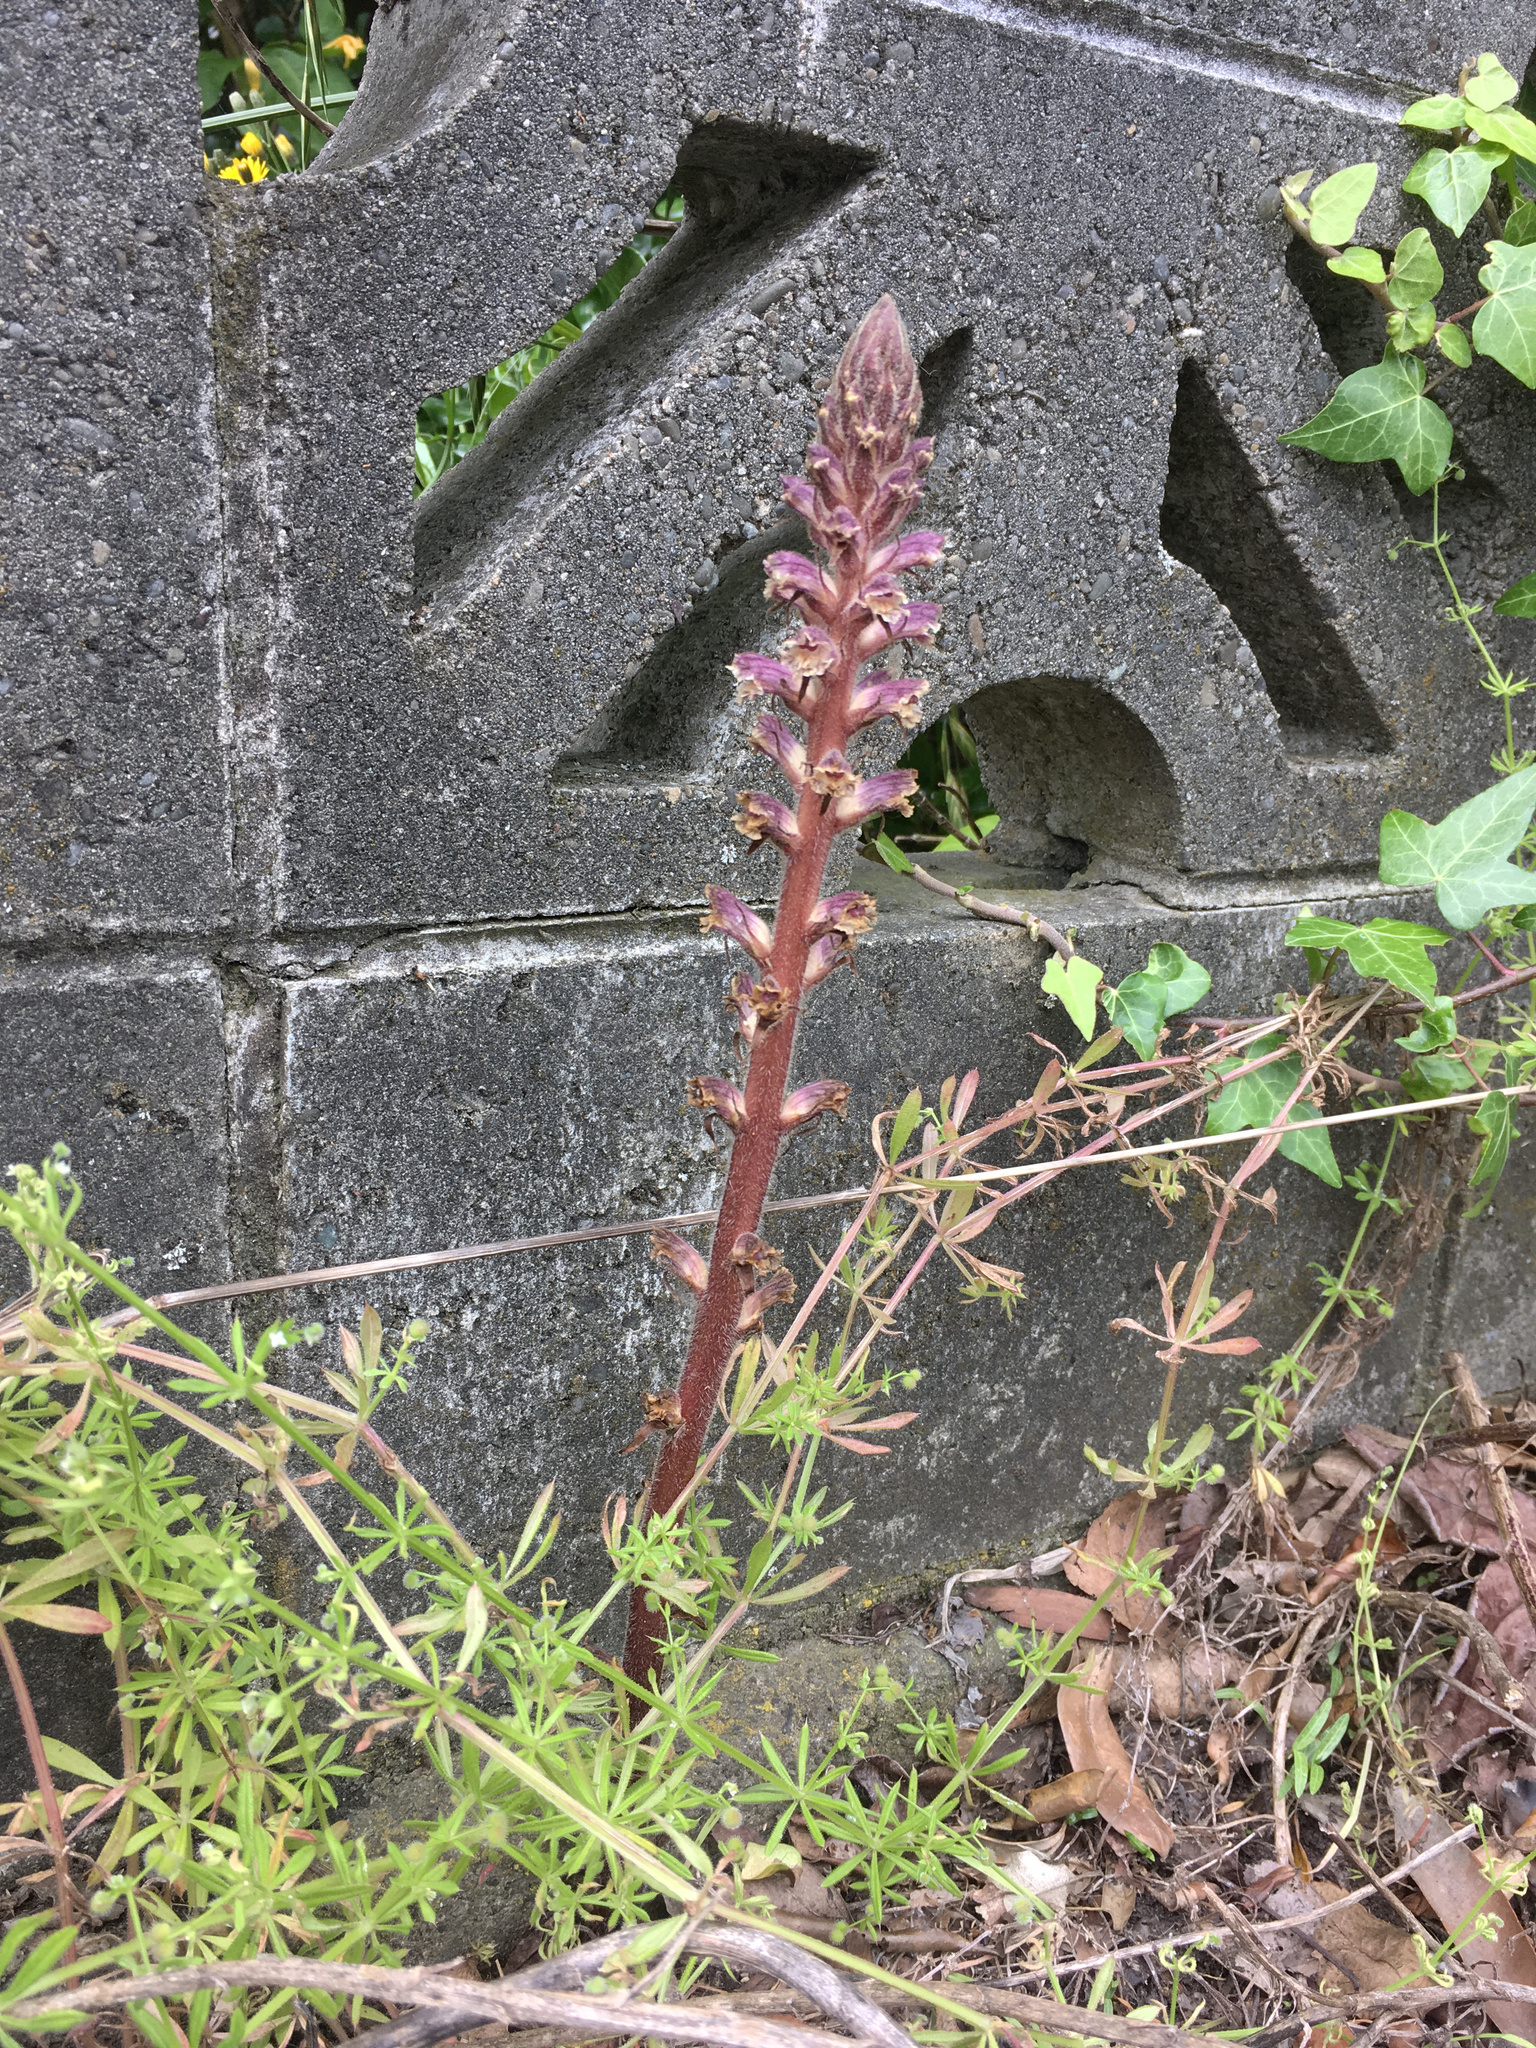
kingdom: Plantae
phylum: Tracheophyta
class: Magnoliopsida
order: Lamiales
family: Orobanchaceae
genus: Orobanche
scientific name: Orobanche minor
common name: Common broomrape
